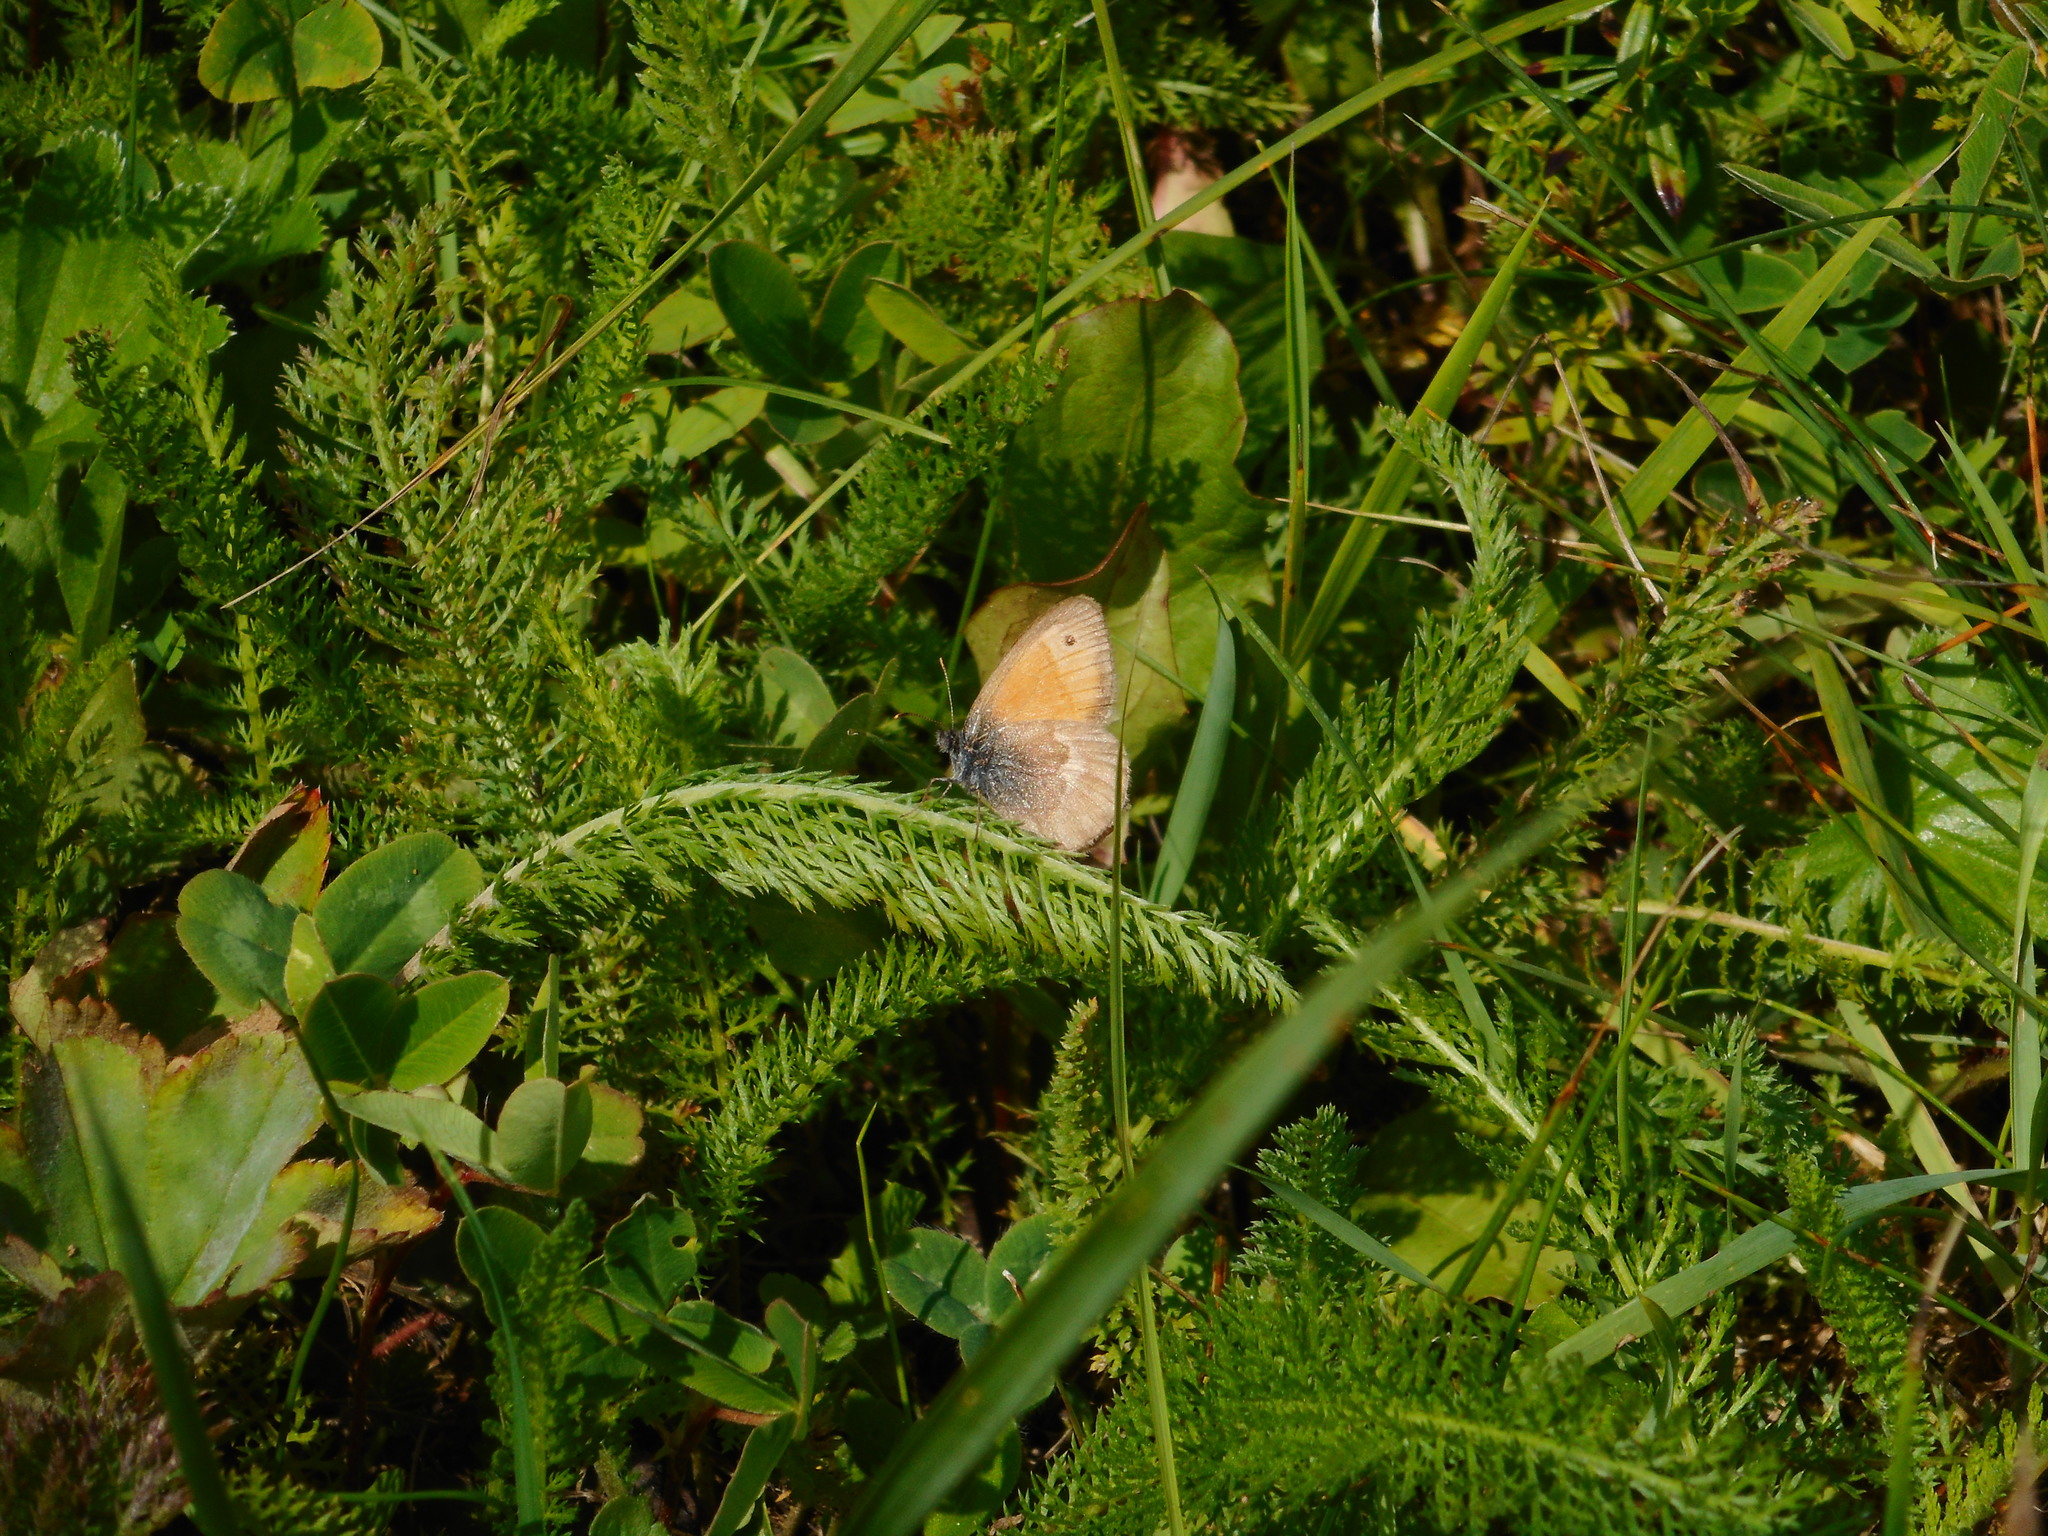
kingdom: Animalia
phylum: Arthropoda
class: Insecta
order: Lepidoptera
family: Nymphalidae
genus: Coenonympha
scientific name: Coenonympha pamphilus
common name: Small heath
